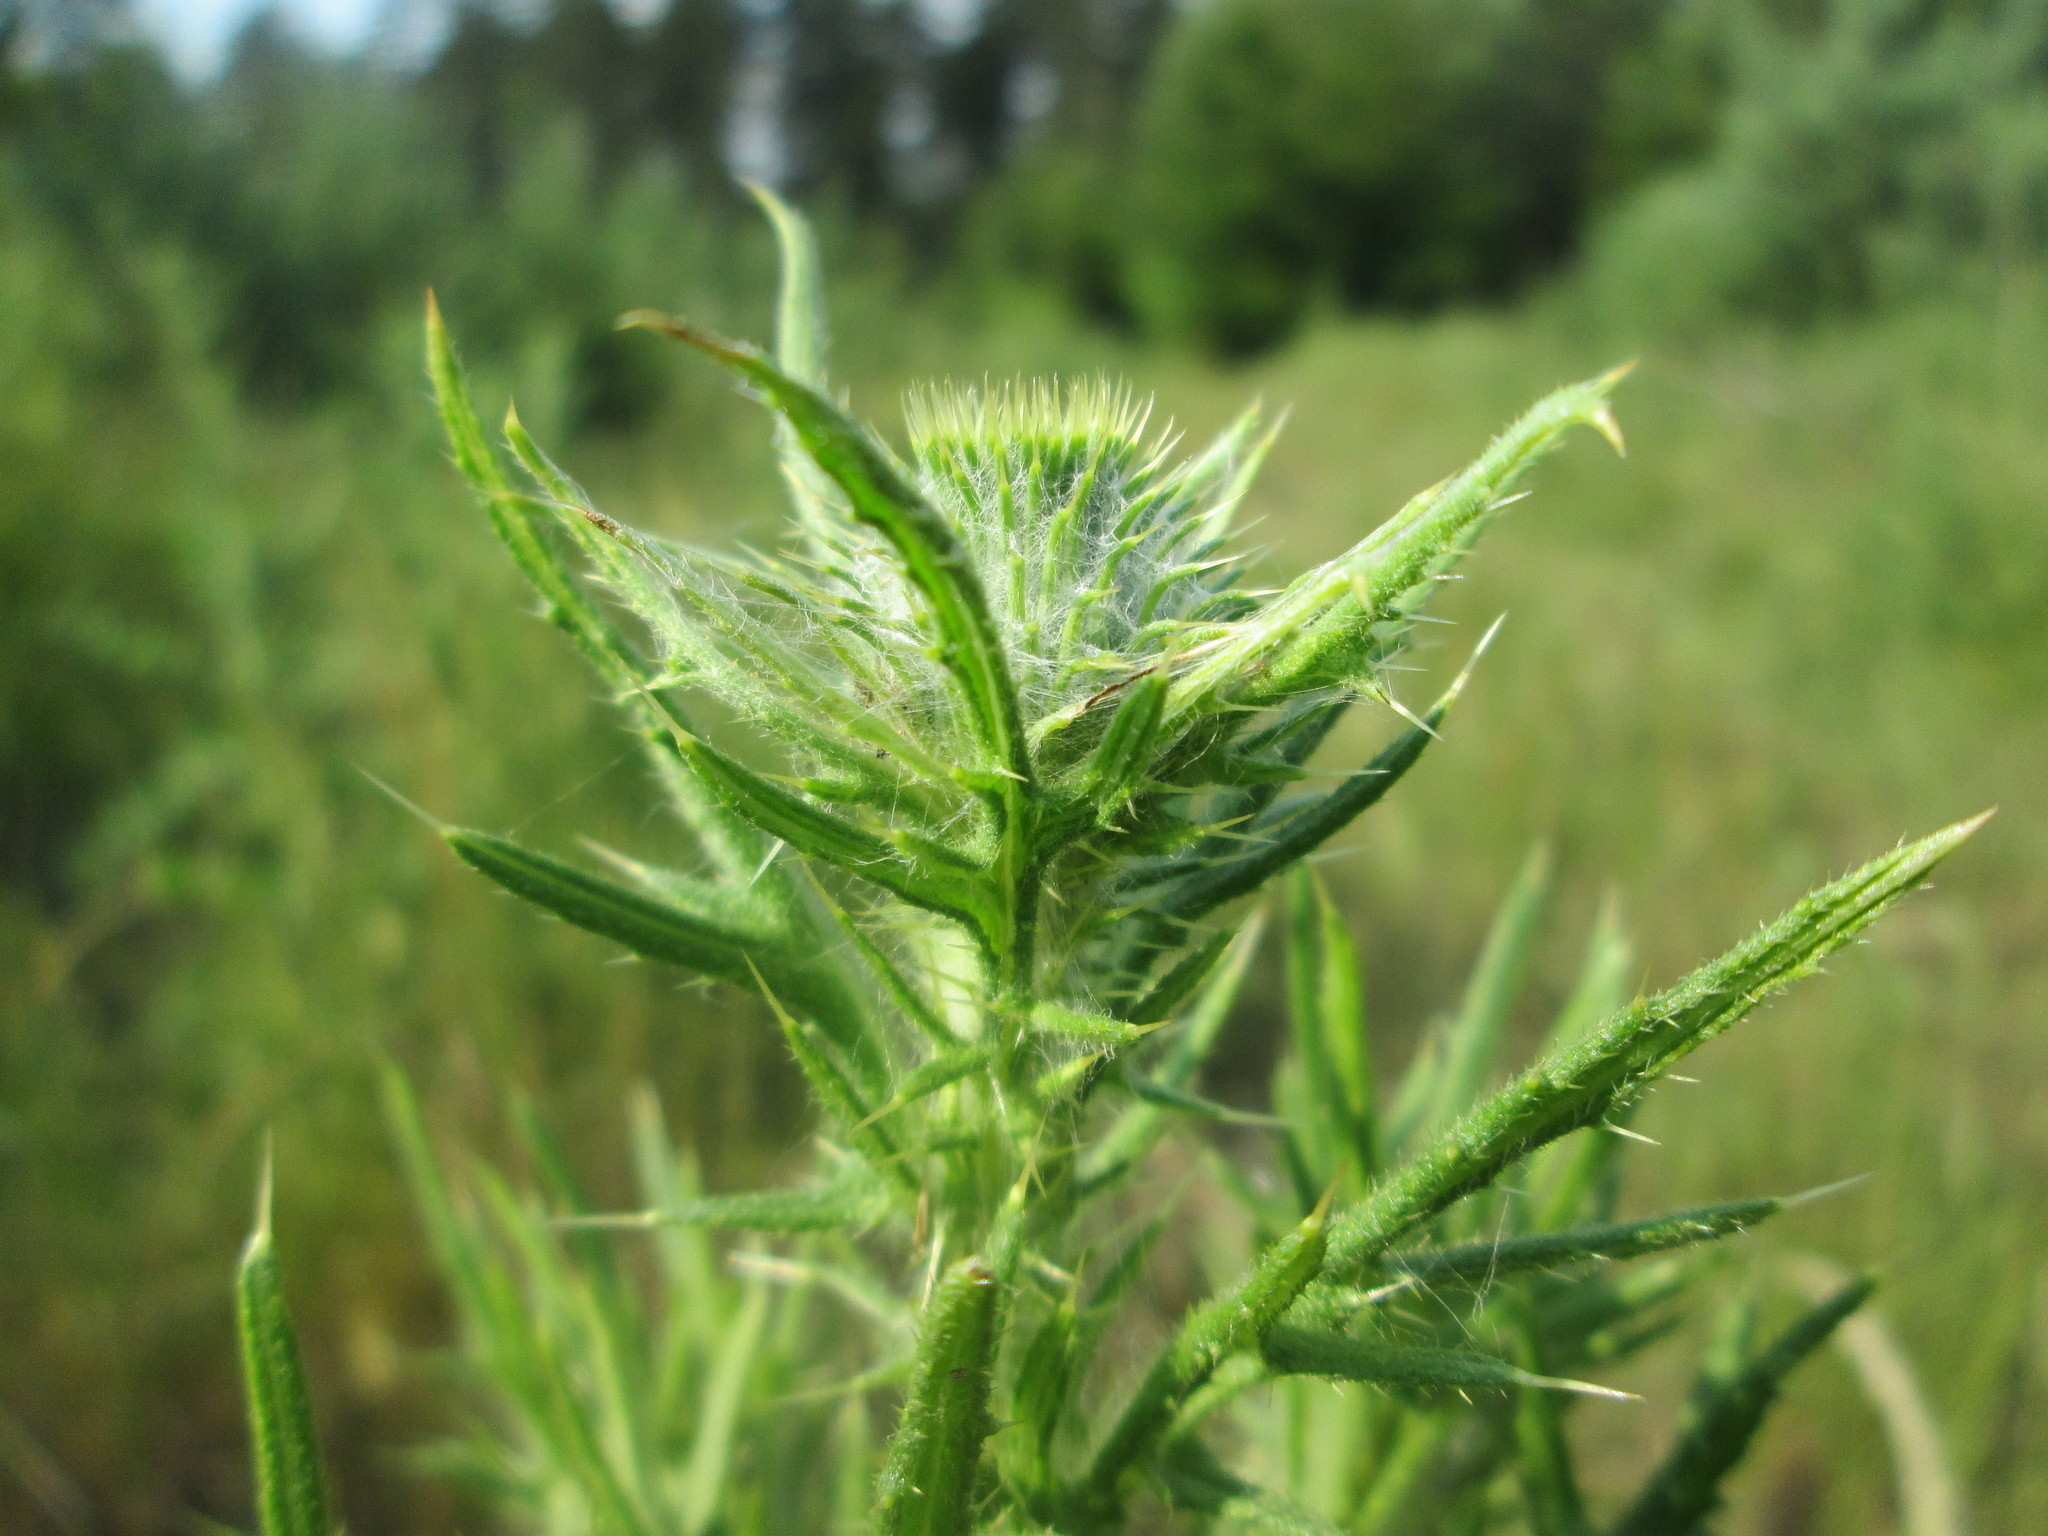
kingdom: Plantae
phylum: Tracheophyta
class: Magnoliopsida
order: Asterales
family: Asteraceae
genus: Cirsium
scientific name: Cirsium vulgare
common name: Bull thistle
